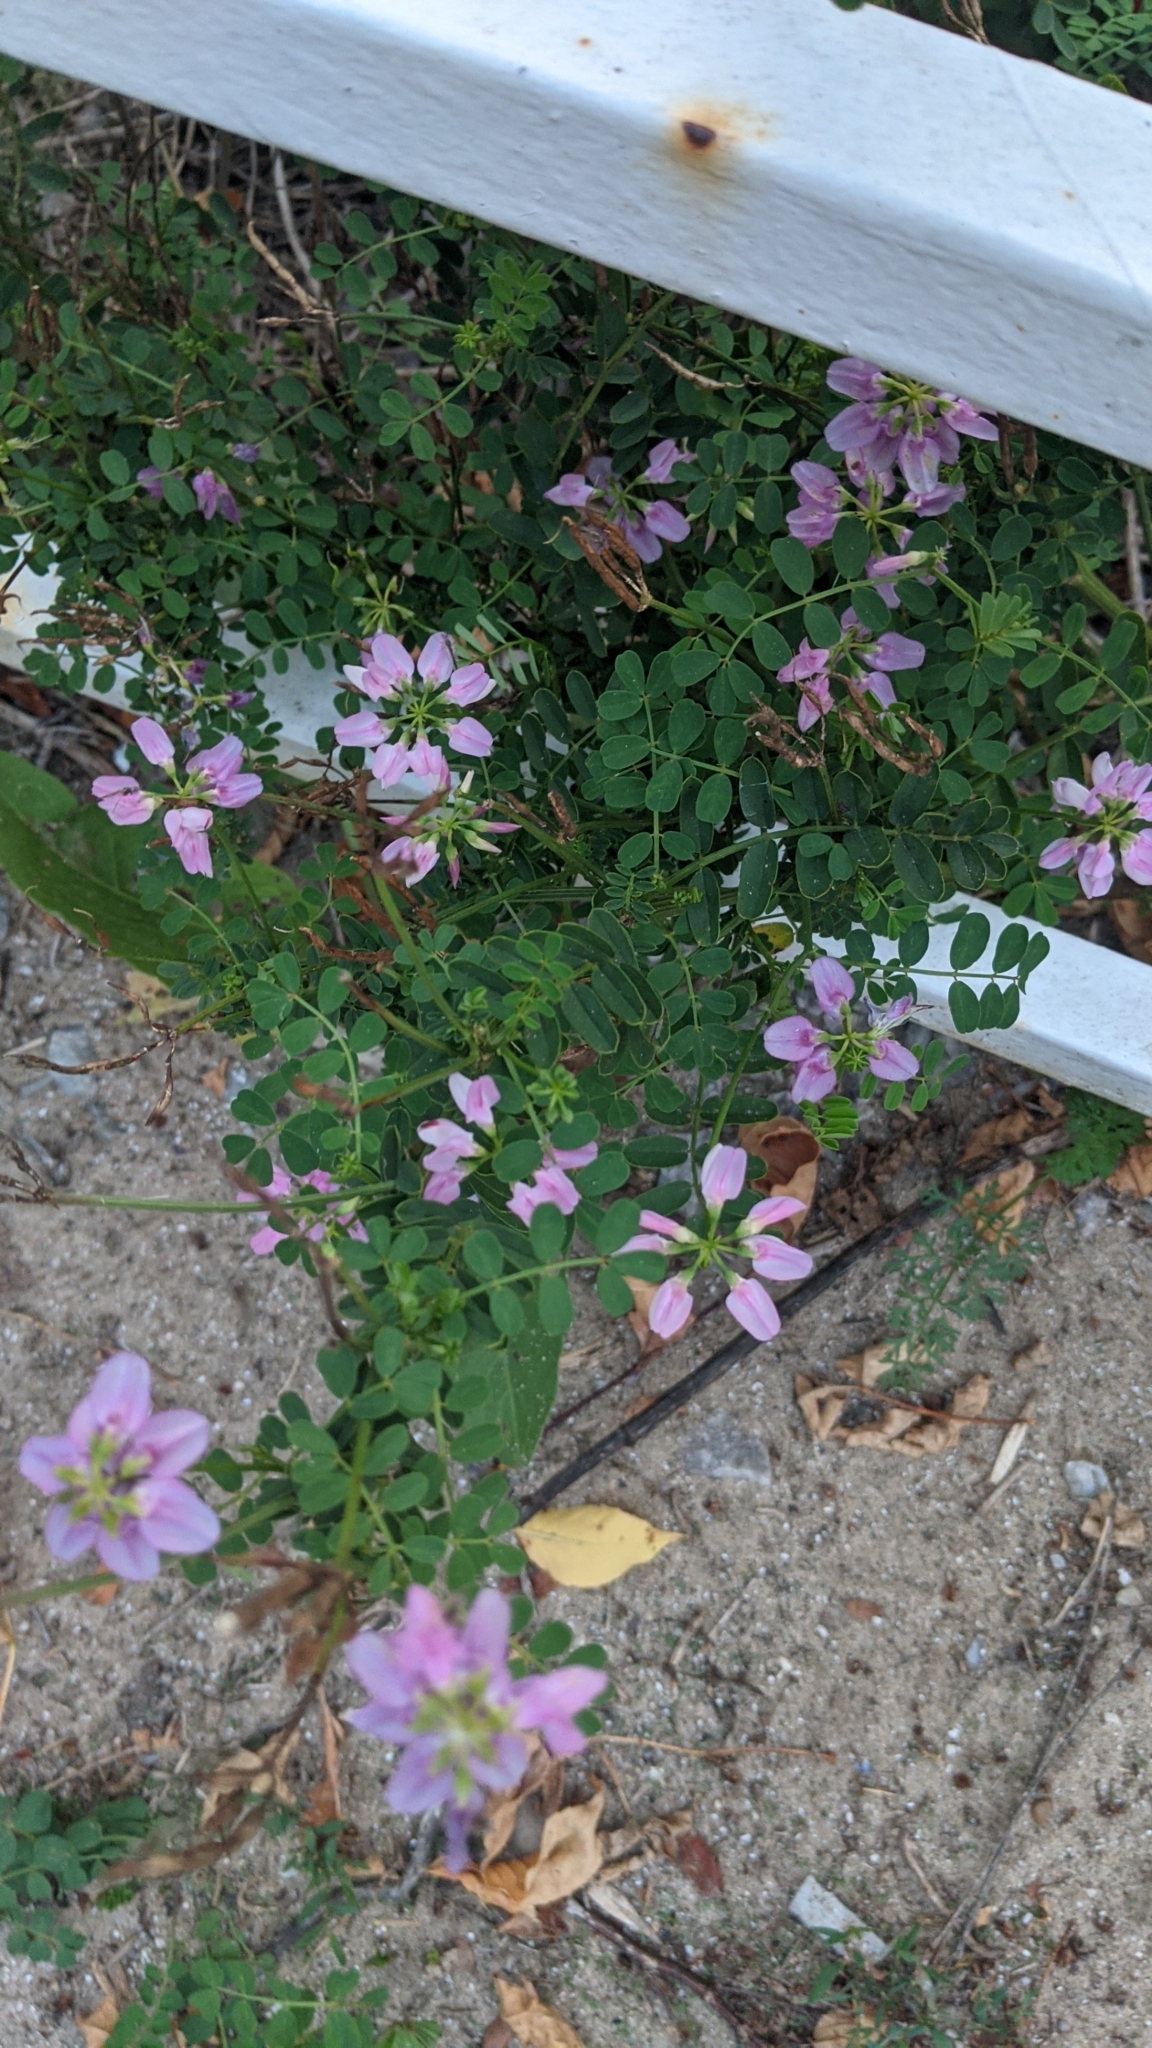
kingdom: Plantae
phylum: Tracheophyta
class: Magnoliopsida
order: Fabales
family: Fabaceae
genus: Coronilla
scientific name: Coronilla varia
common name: Crownvetch
